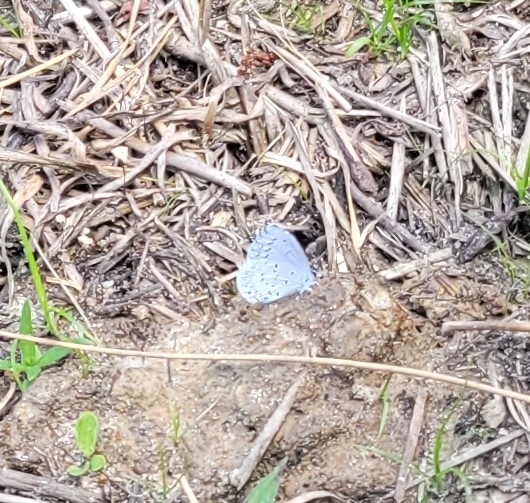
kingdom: Animalia
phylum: Arthropoda
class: Insecta
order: Lepidoptera
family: Lycaenidae
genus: Cyaniris
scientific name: Cyaniris neglecta
